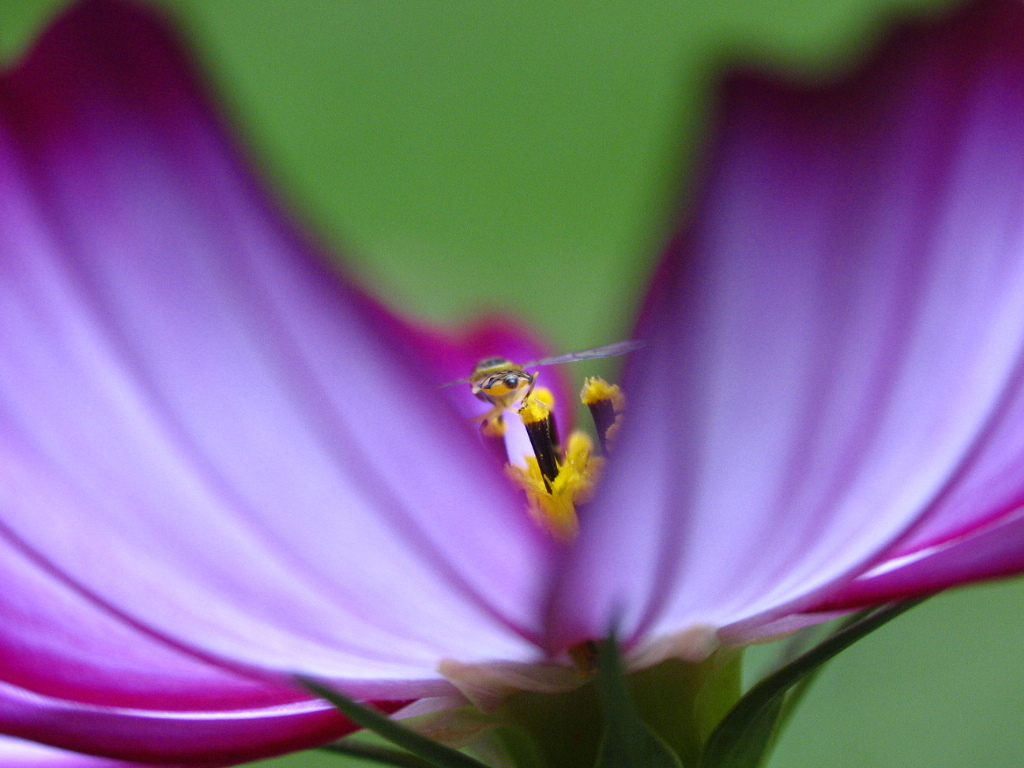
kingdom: Animalia
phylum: Arthropoda
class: Insecta
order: Diptera
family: Syrphidae
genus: Toxomerus
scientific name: Toxomerus geminatus
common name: Eastern calligrapher
